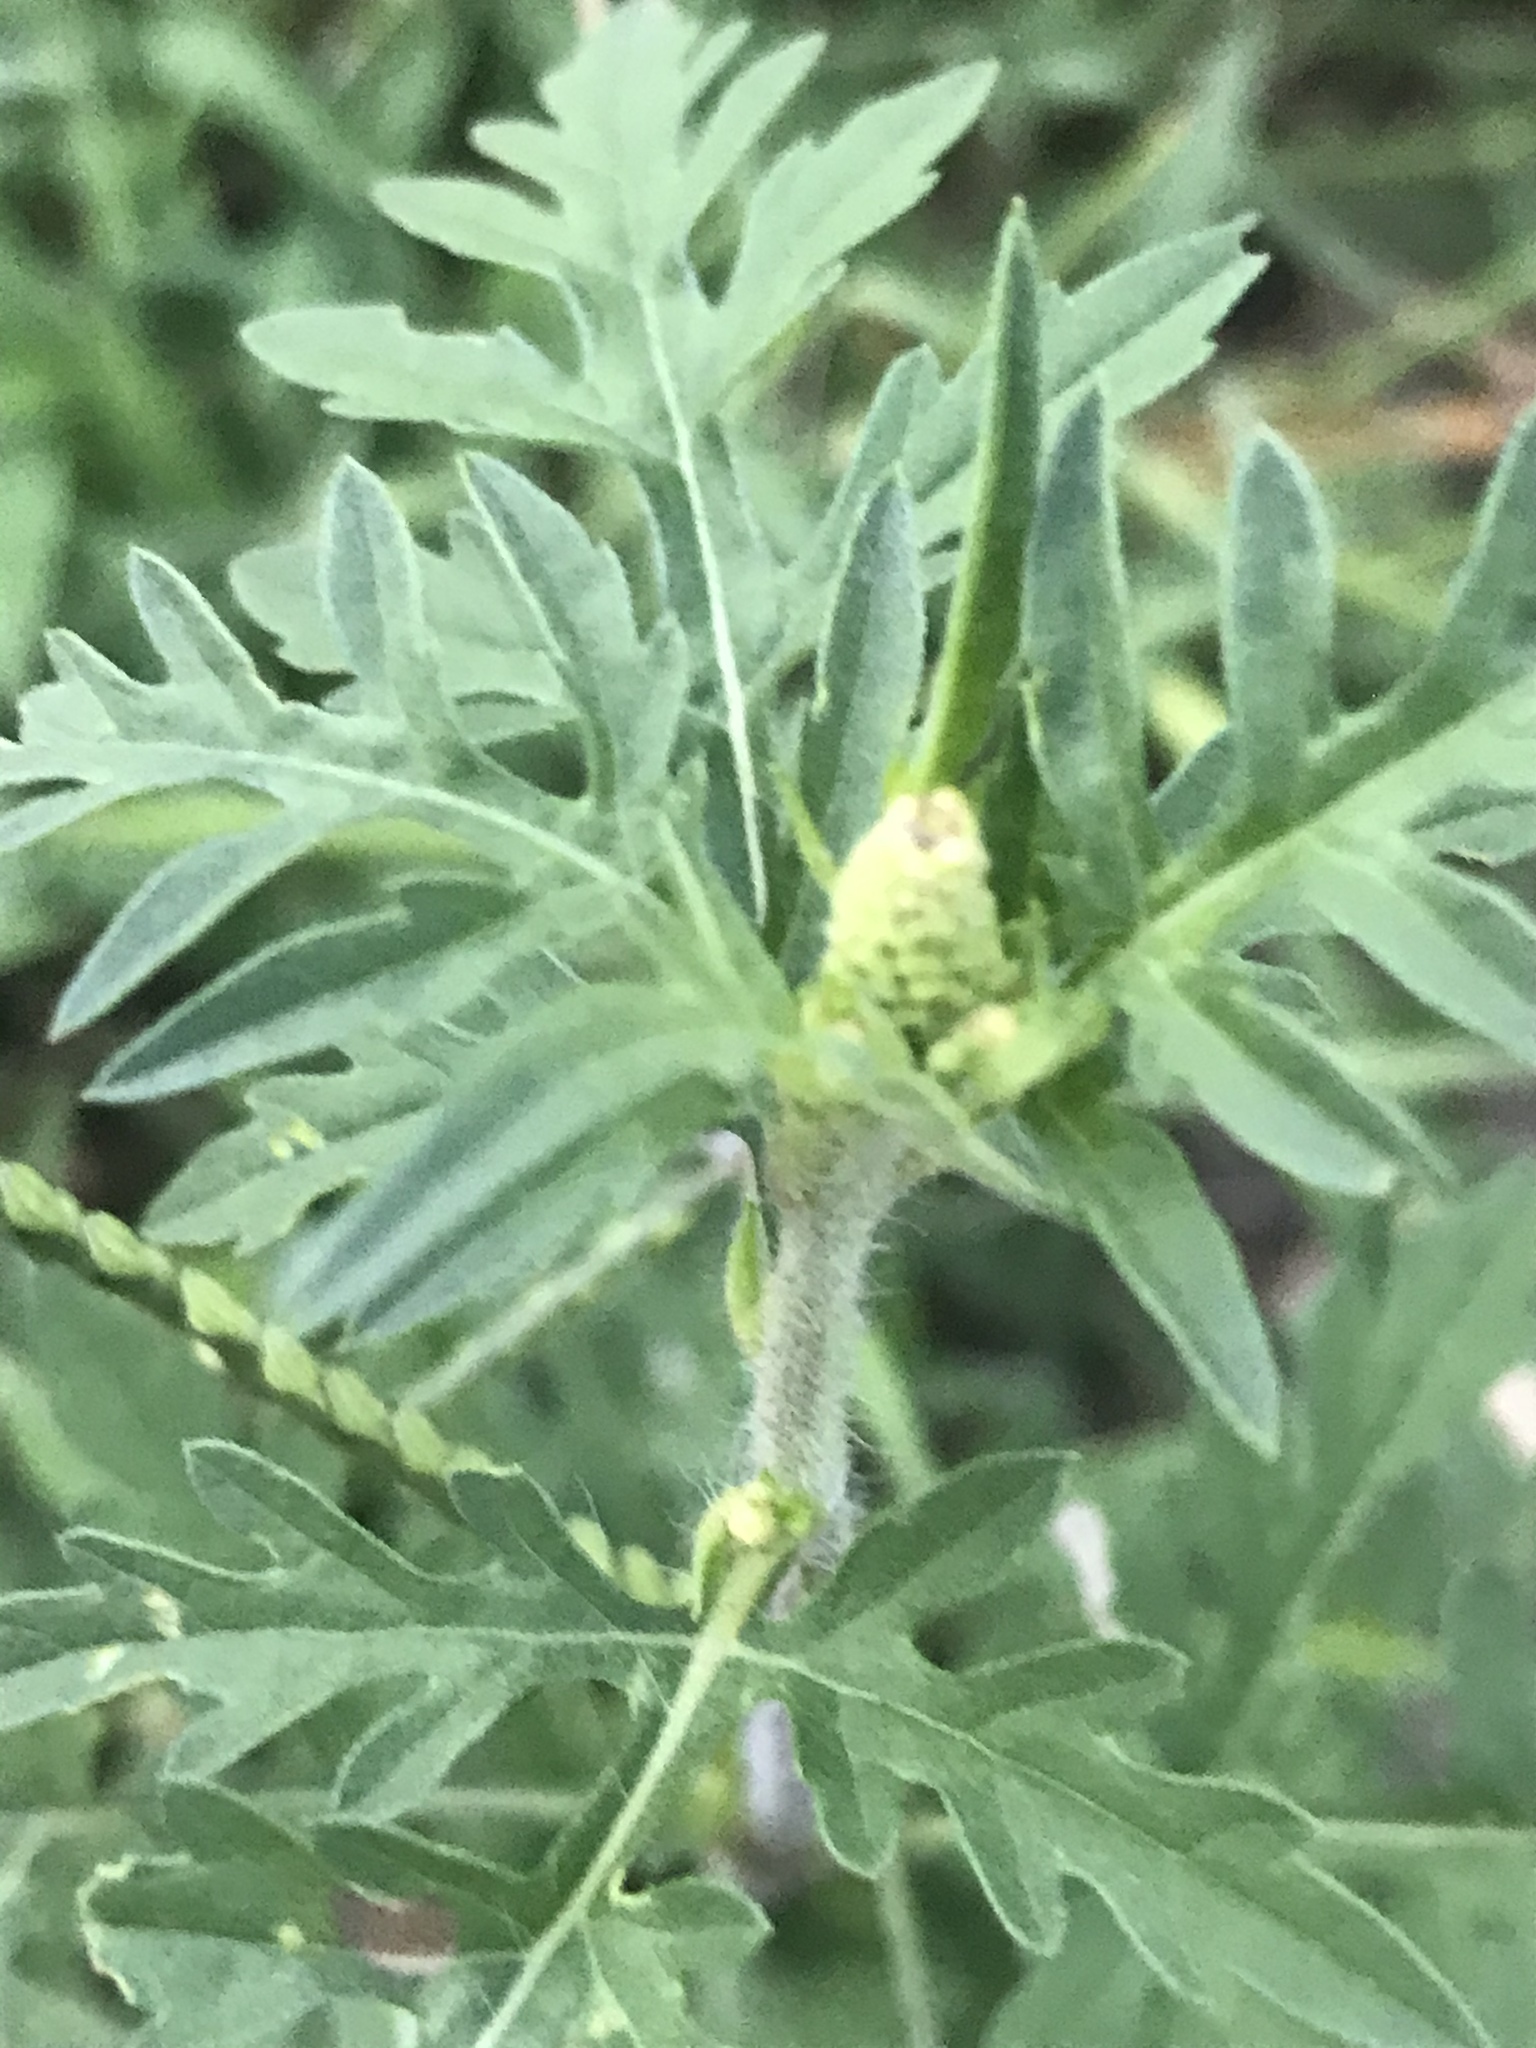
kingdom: Plantae
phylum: Tracheophyta
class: Magnoliopsida
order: Asterales
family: Asteraceae
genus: Ambrosia
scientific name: Ambrosia artemisiifolia
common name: Annual ragweed
